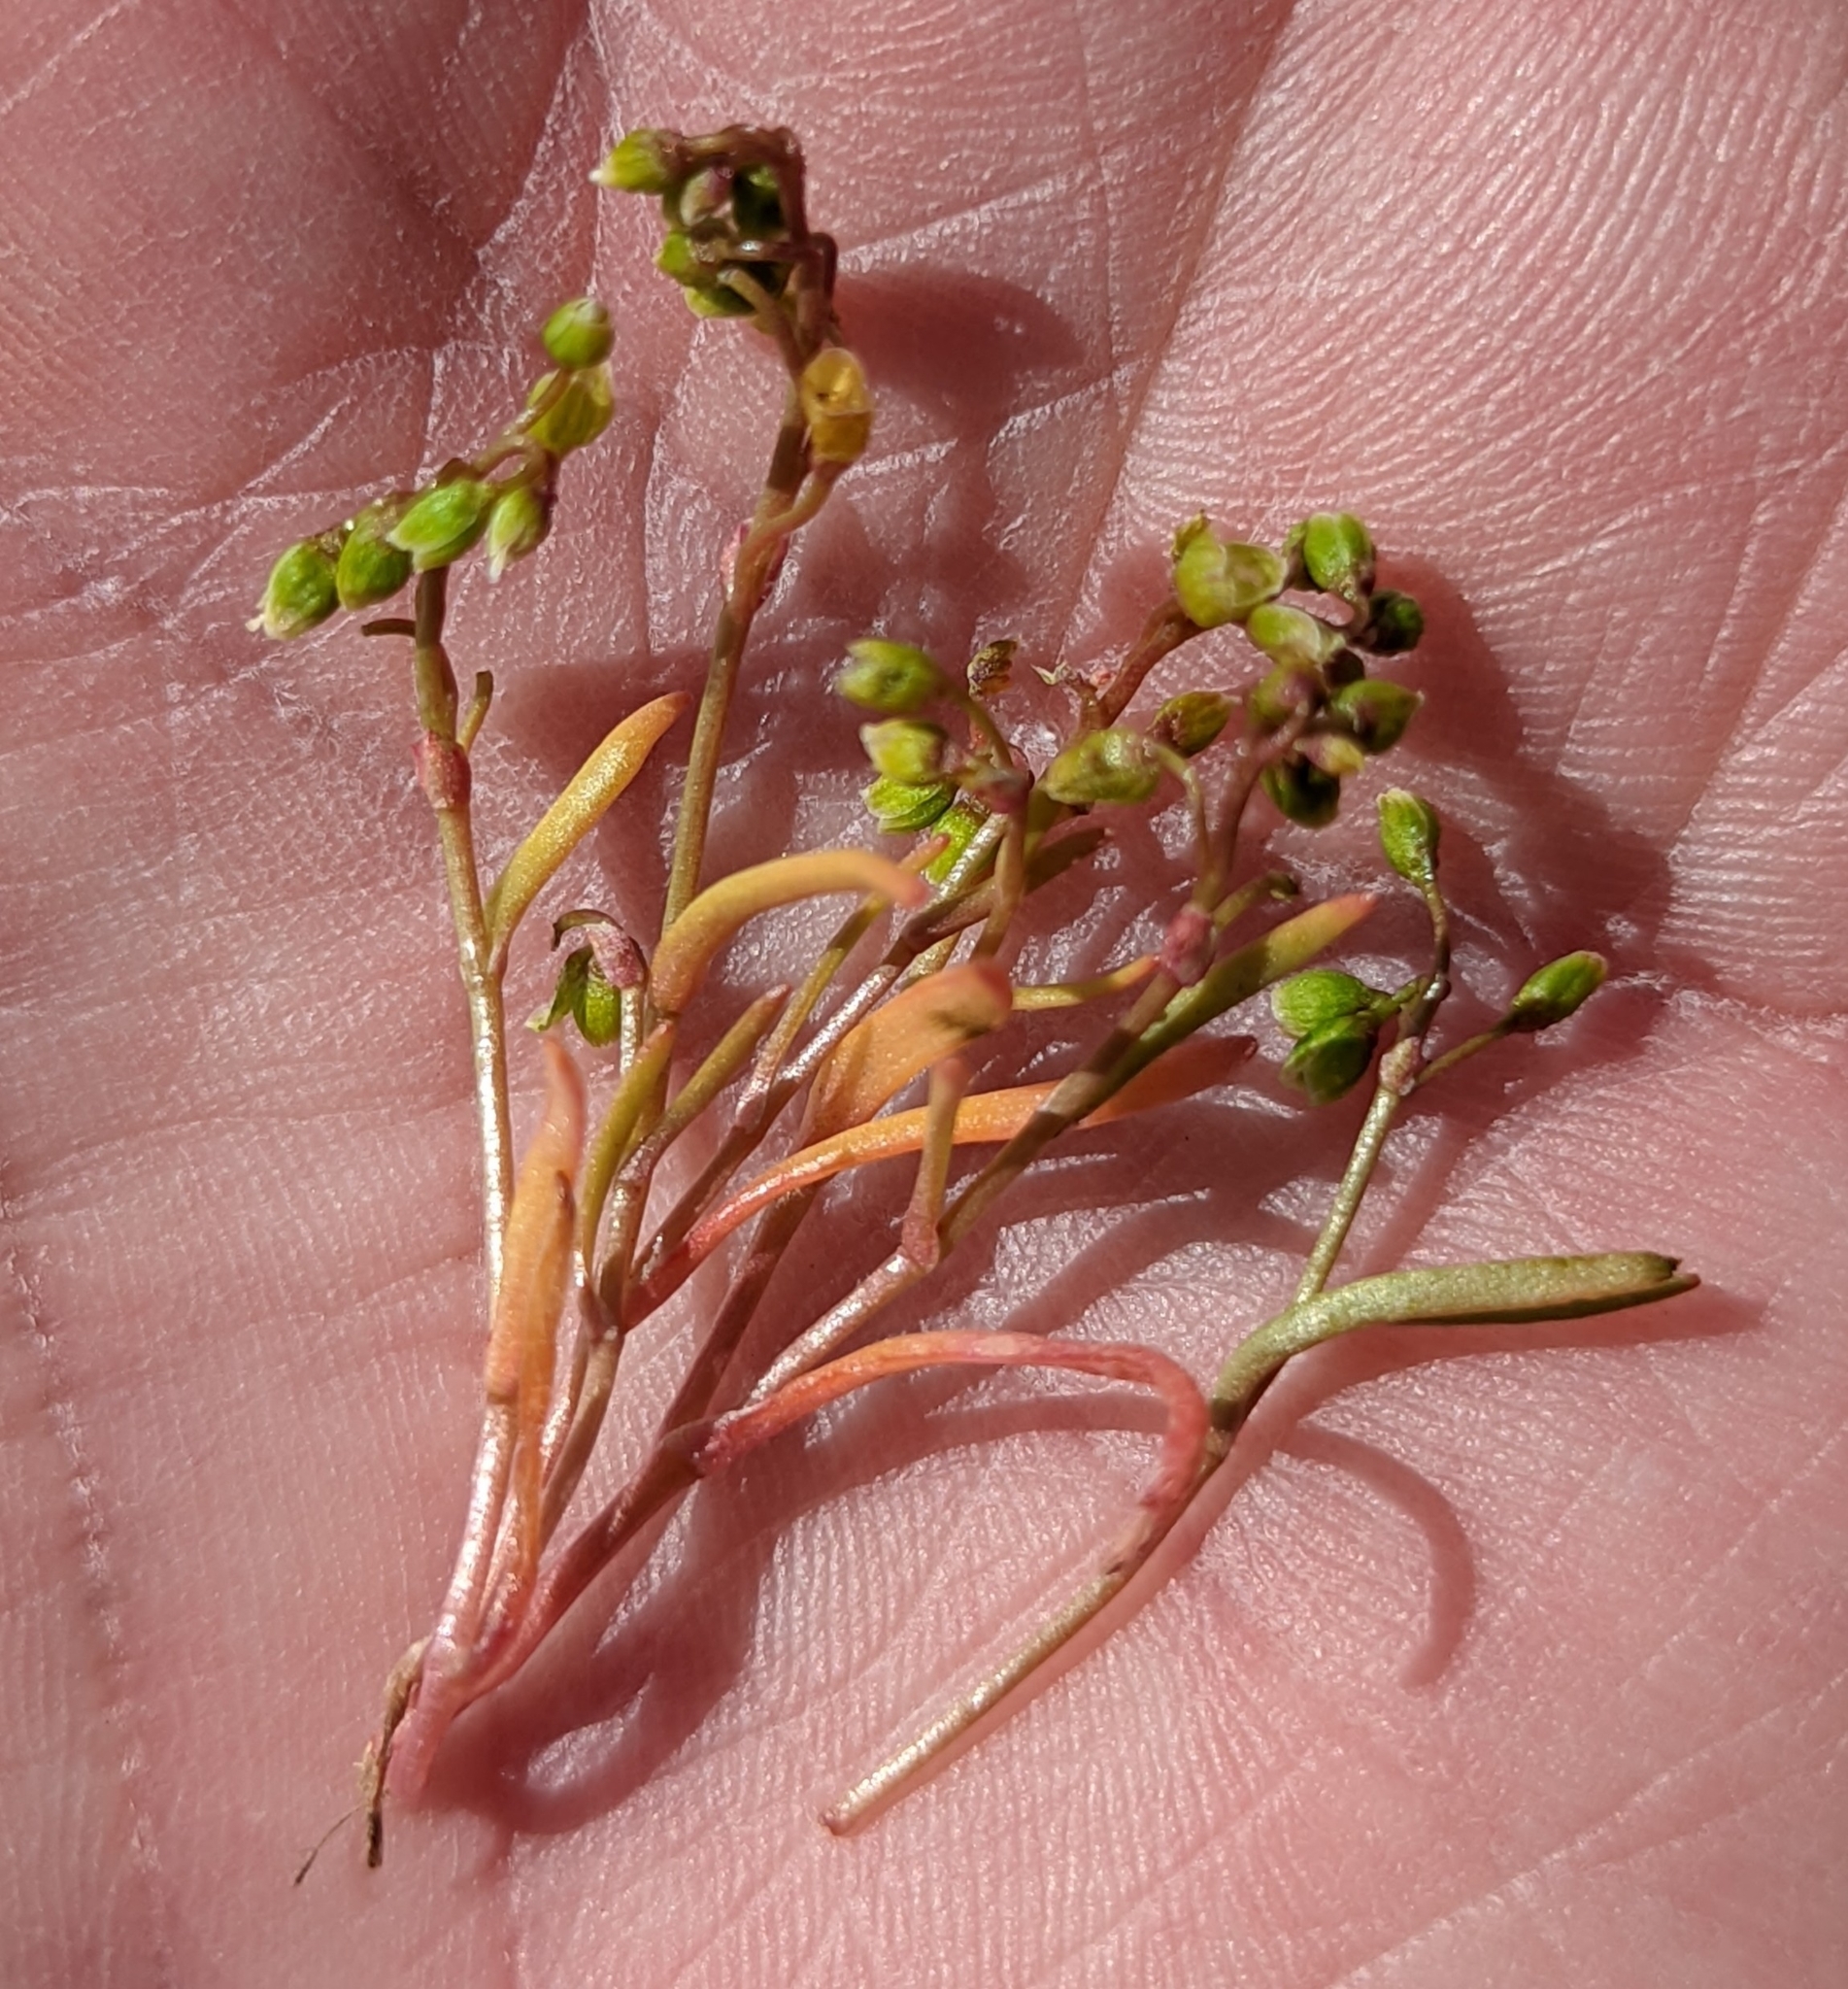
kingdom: Plantae
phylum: Tracheophyta
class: Magnoliopsida
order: Caryophyllales
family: Montiaceae
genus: Montia
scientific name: Montia linearis
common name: Narrow-leaf montia
